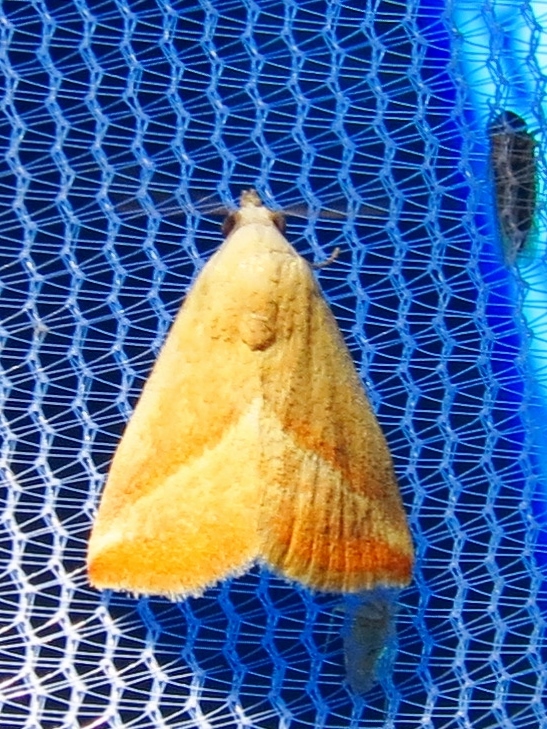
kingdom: Animalia
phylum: Arthropoda
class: Insecta
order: Lepidoptera
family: Noctuidae
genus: Eublemma
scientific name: Eublemma recta
